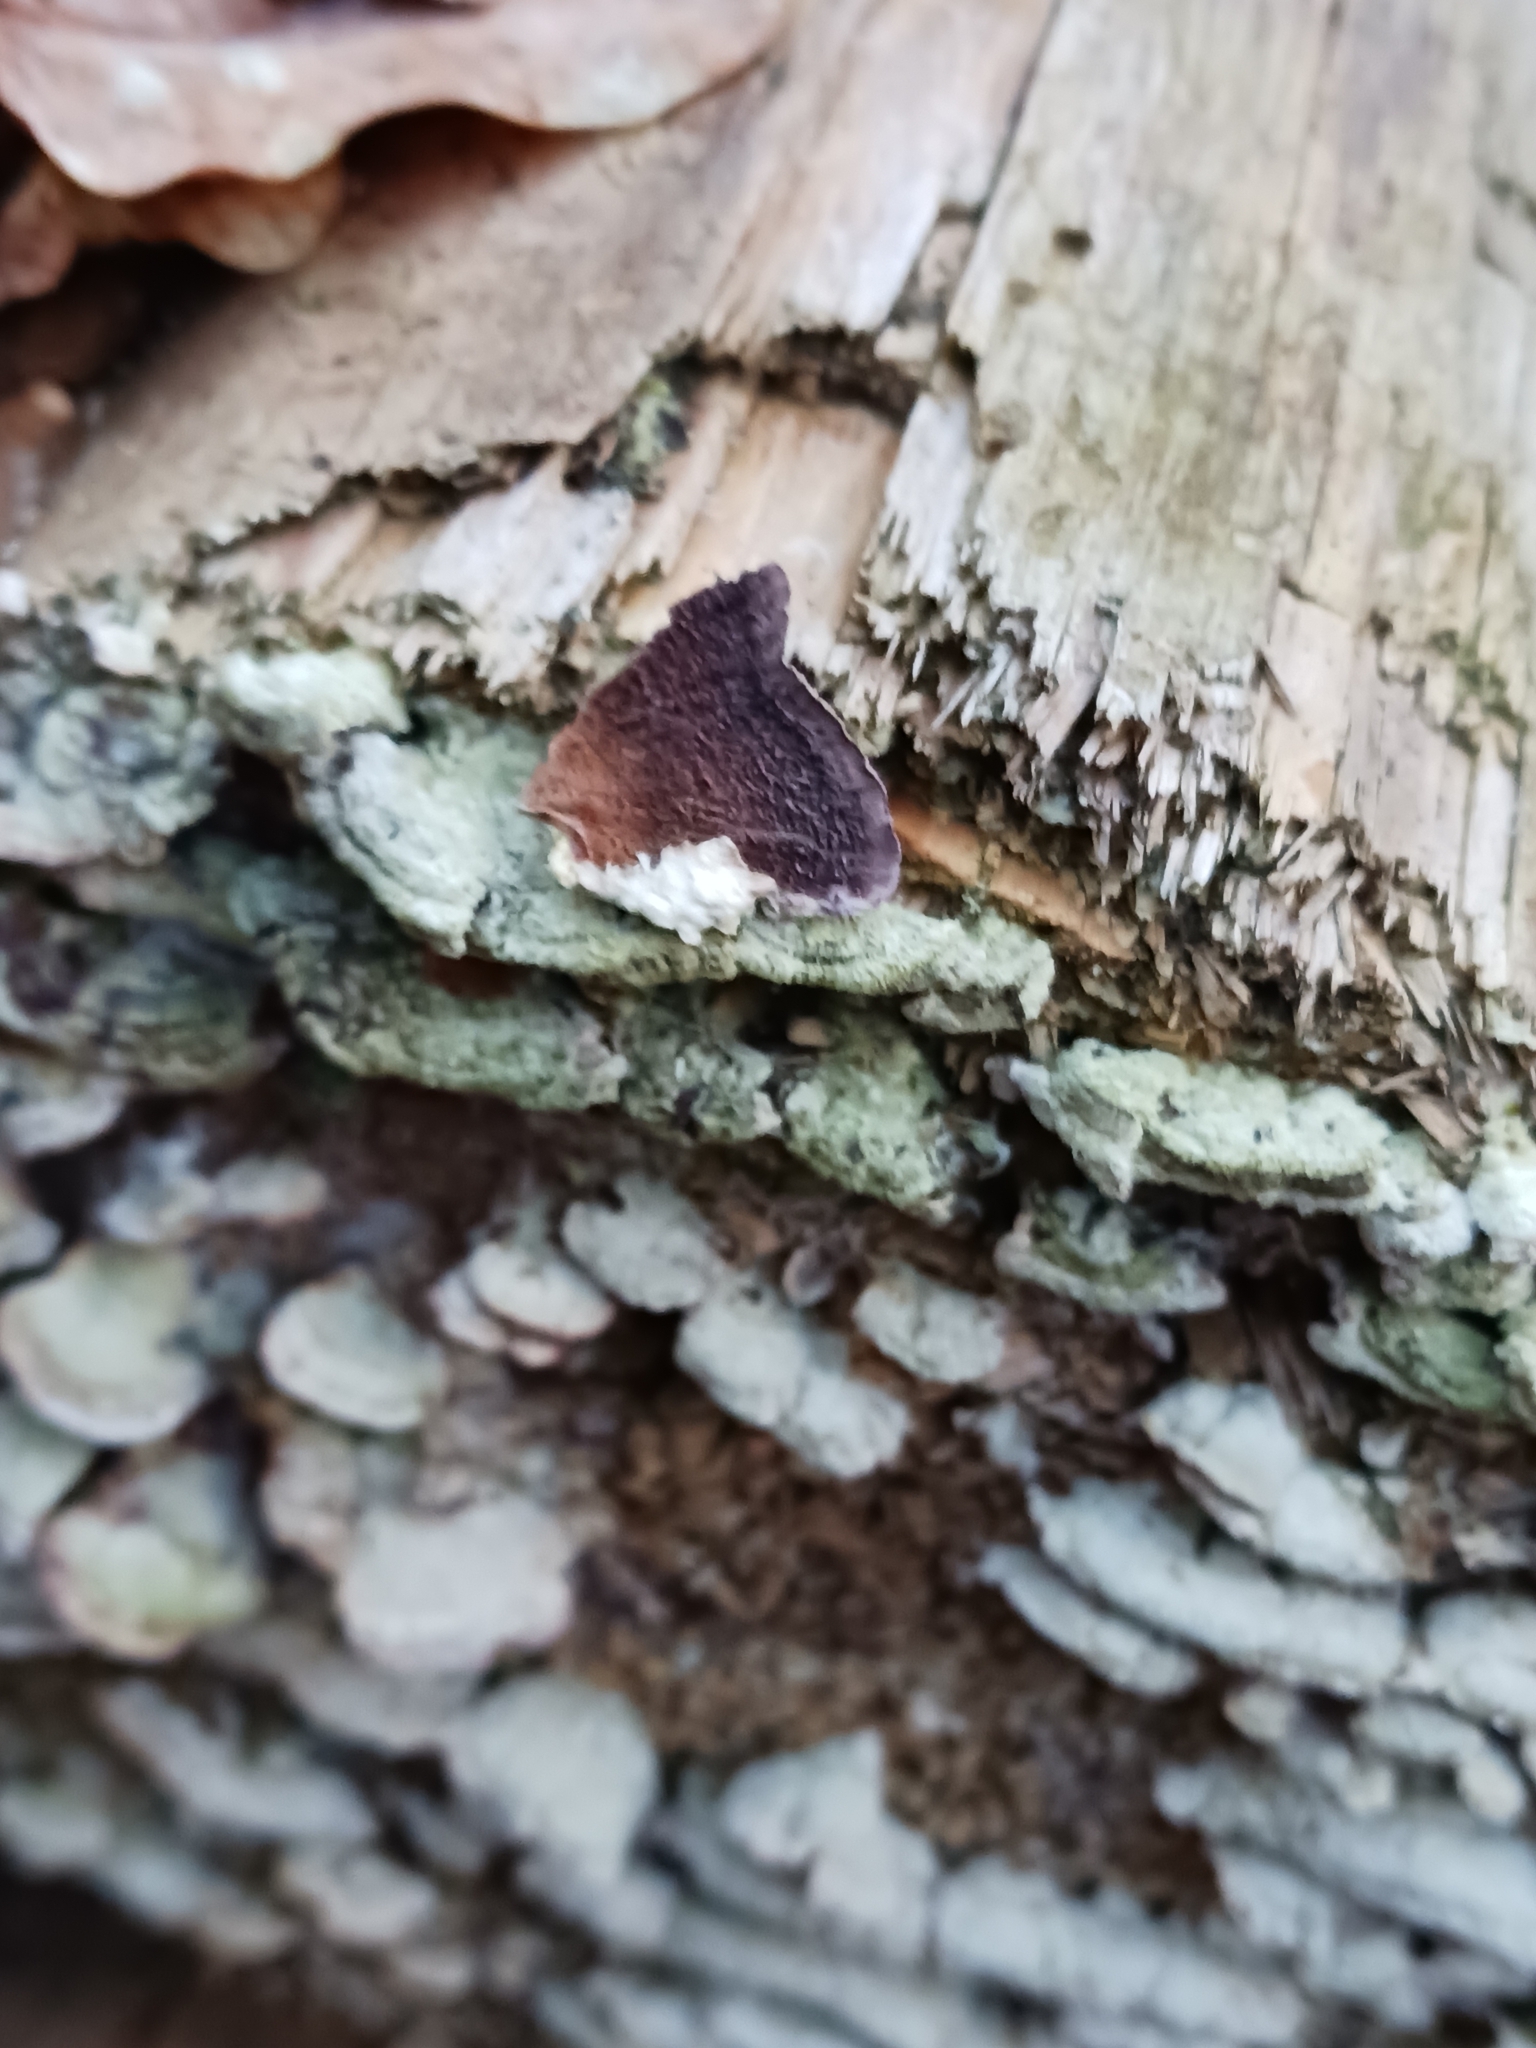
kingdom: Fungi
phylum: Basidiomycota
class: Agaricomycetes
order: Hymenochaetales
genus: Trichaptum
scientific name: Trichaptum abietinum
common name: Purplepore bracket
